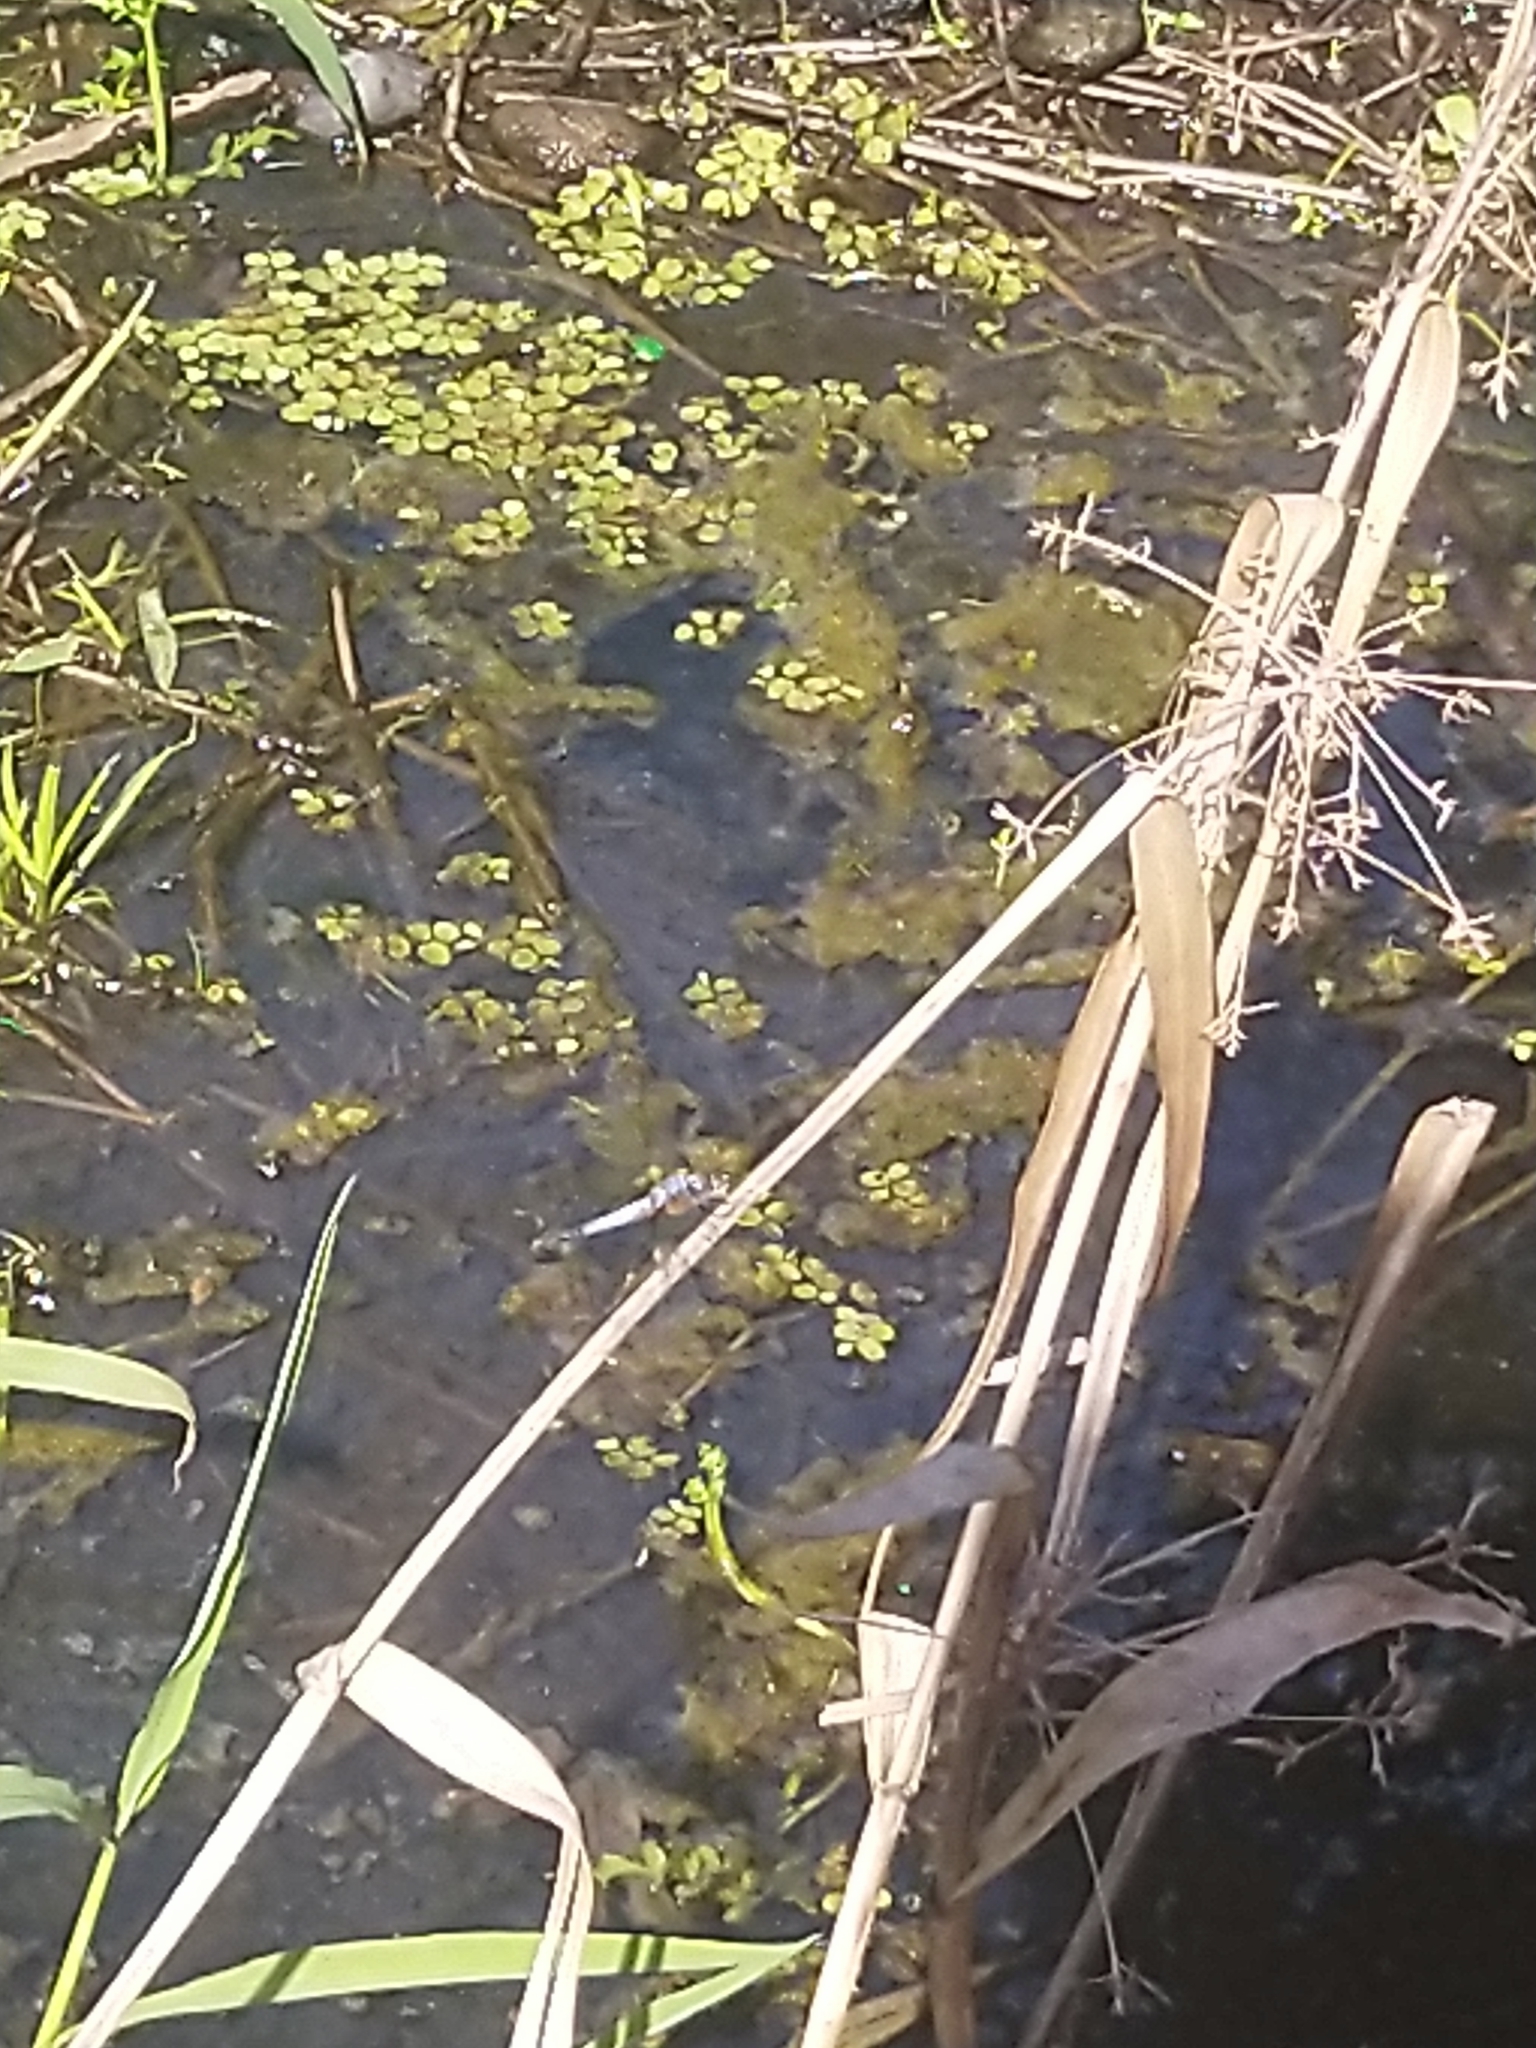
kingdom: Animalia
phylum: Arthropoda
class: Insecta
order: Odonata
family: Libellulidae
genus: Brachydiplax
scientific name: Brachydiplax chalybea
